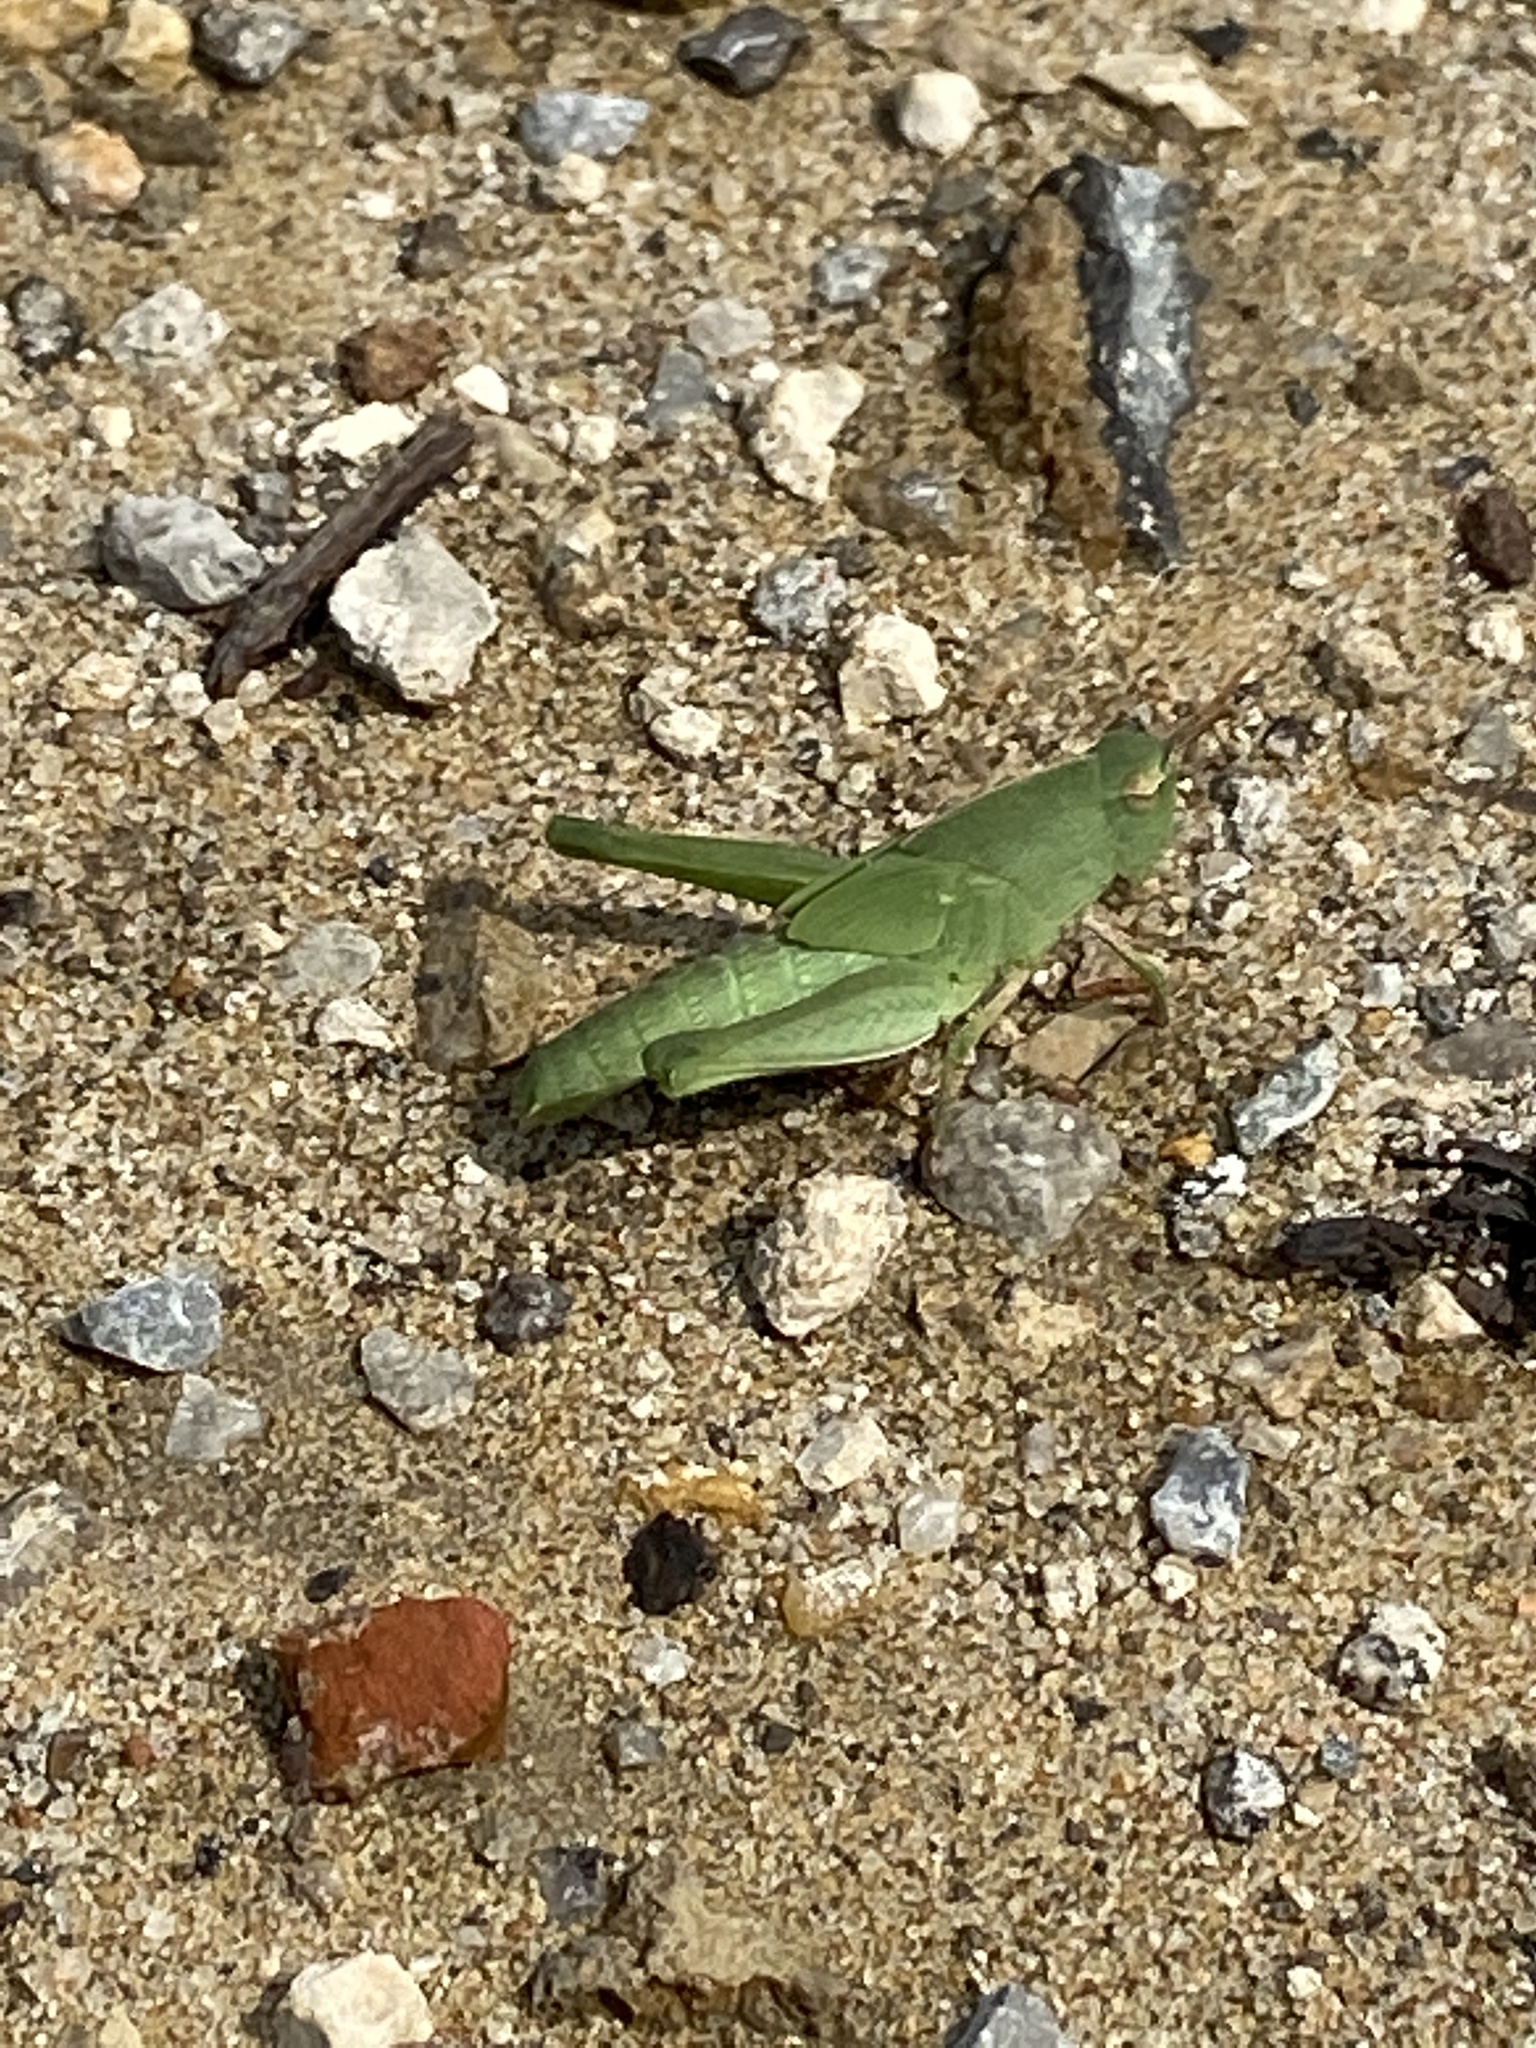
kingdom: Animalia
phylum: Arthropoda
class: Insecta
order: Orthoptera
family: Acrididae
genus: Chortophaga
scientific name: Chortophaga viridifasciata
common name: Green-striped grasshopper
